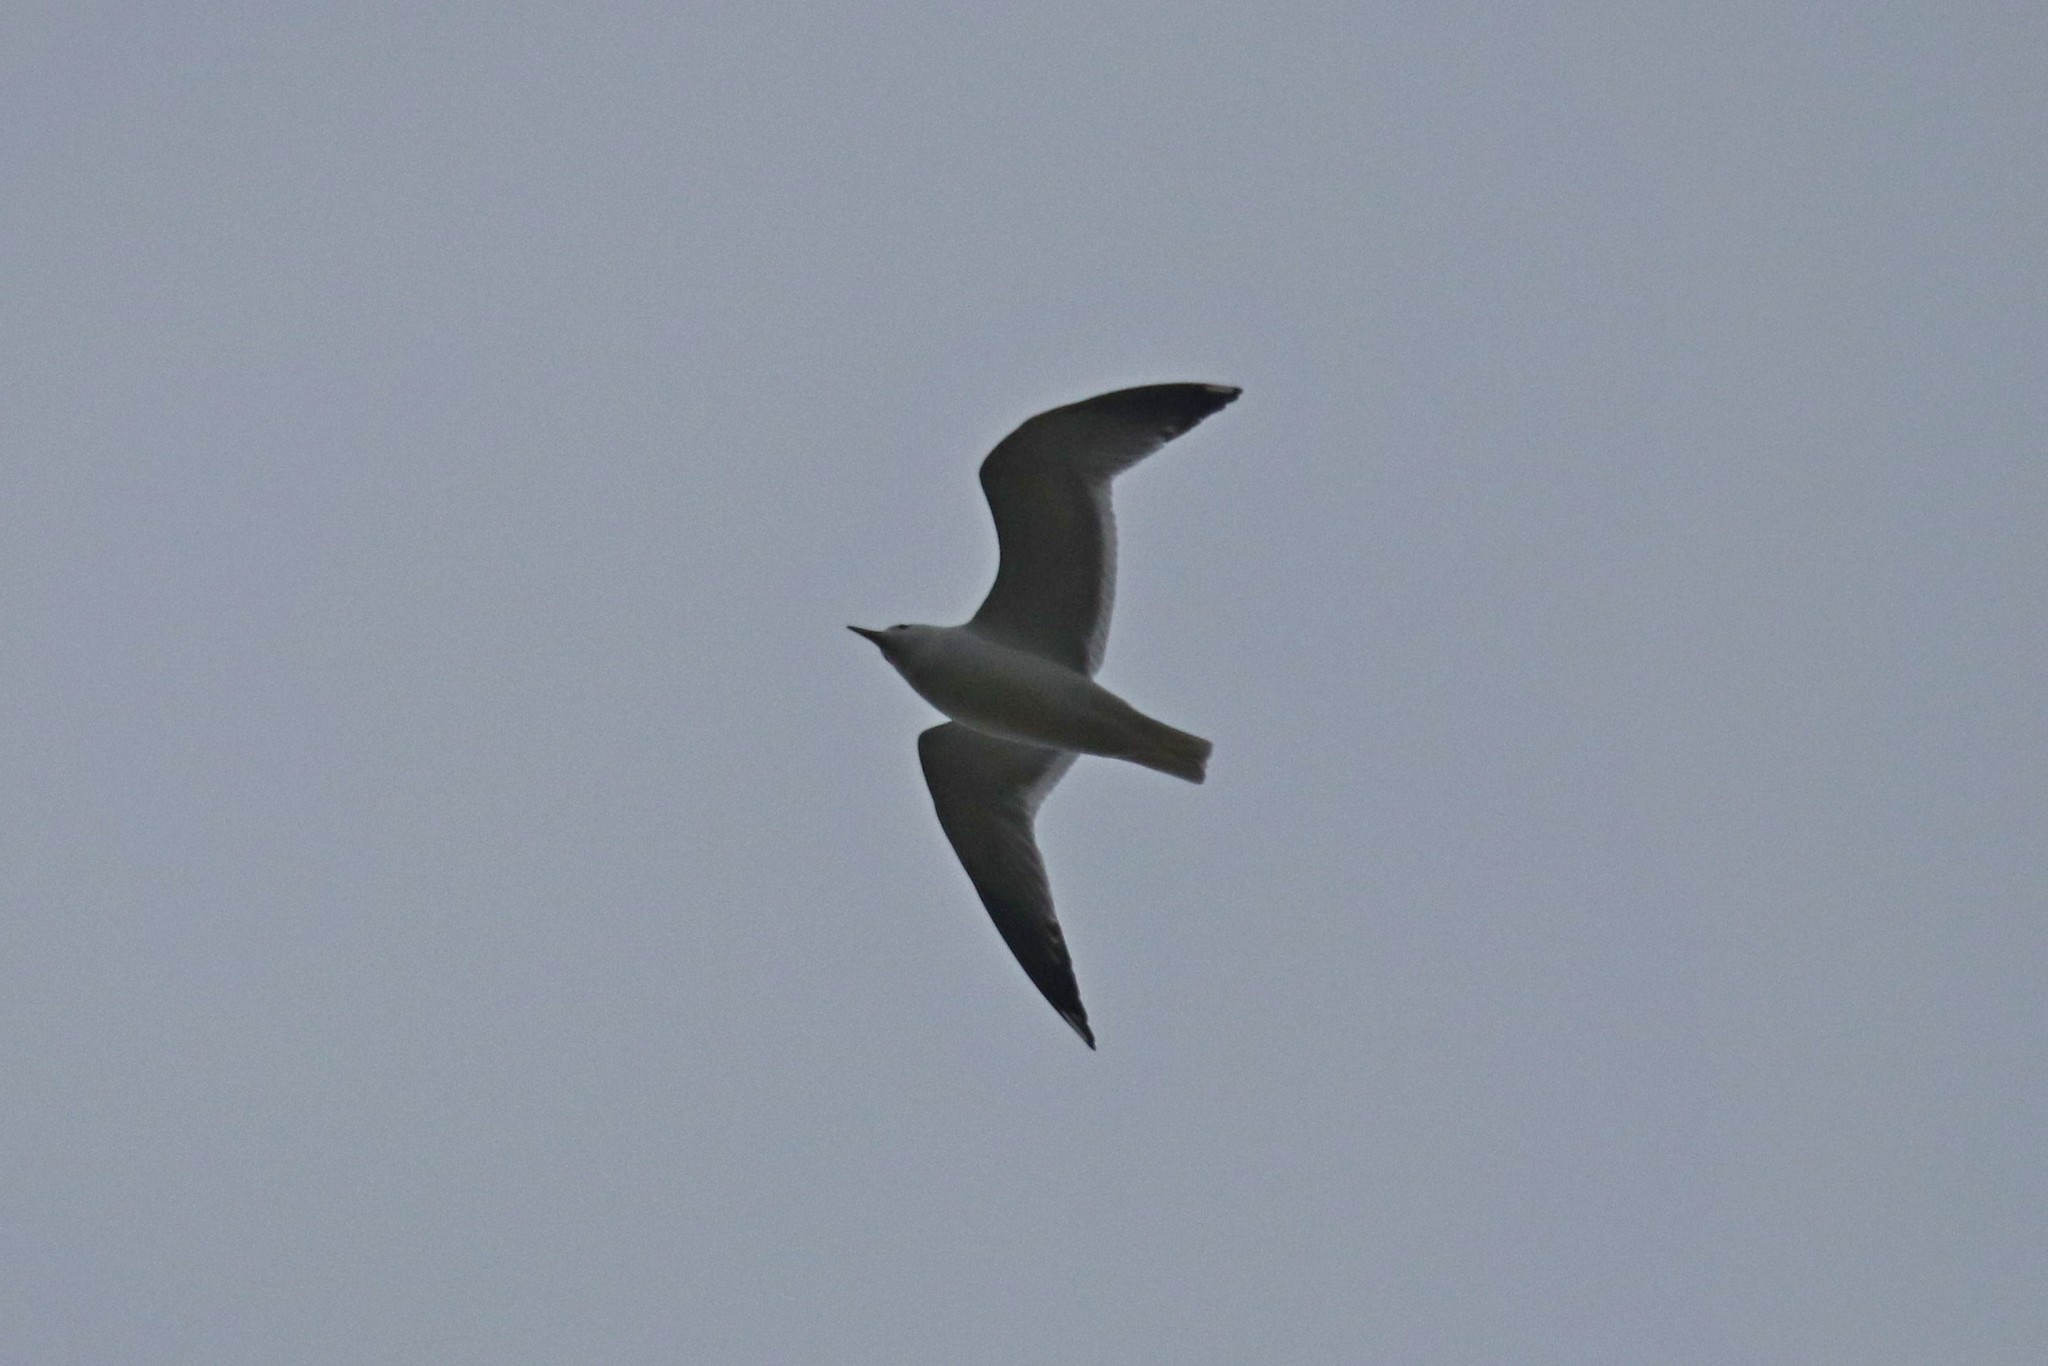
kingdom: Animalia
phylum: Chordata
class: Aves
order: Charadriiformes
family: Laridae
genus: Larus
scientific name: Larus canus
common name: Mew gull
